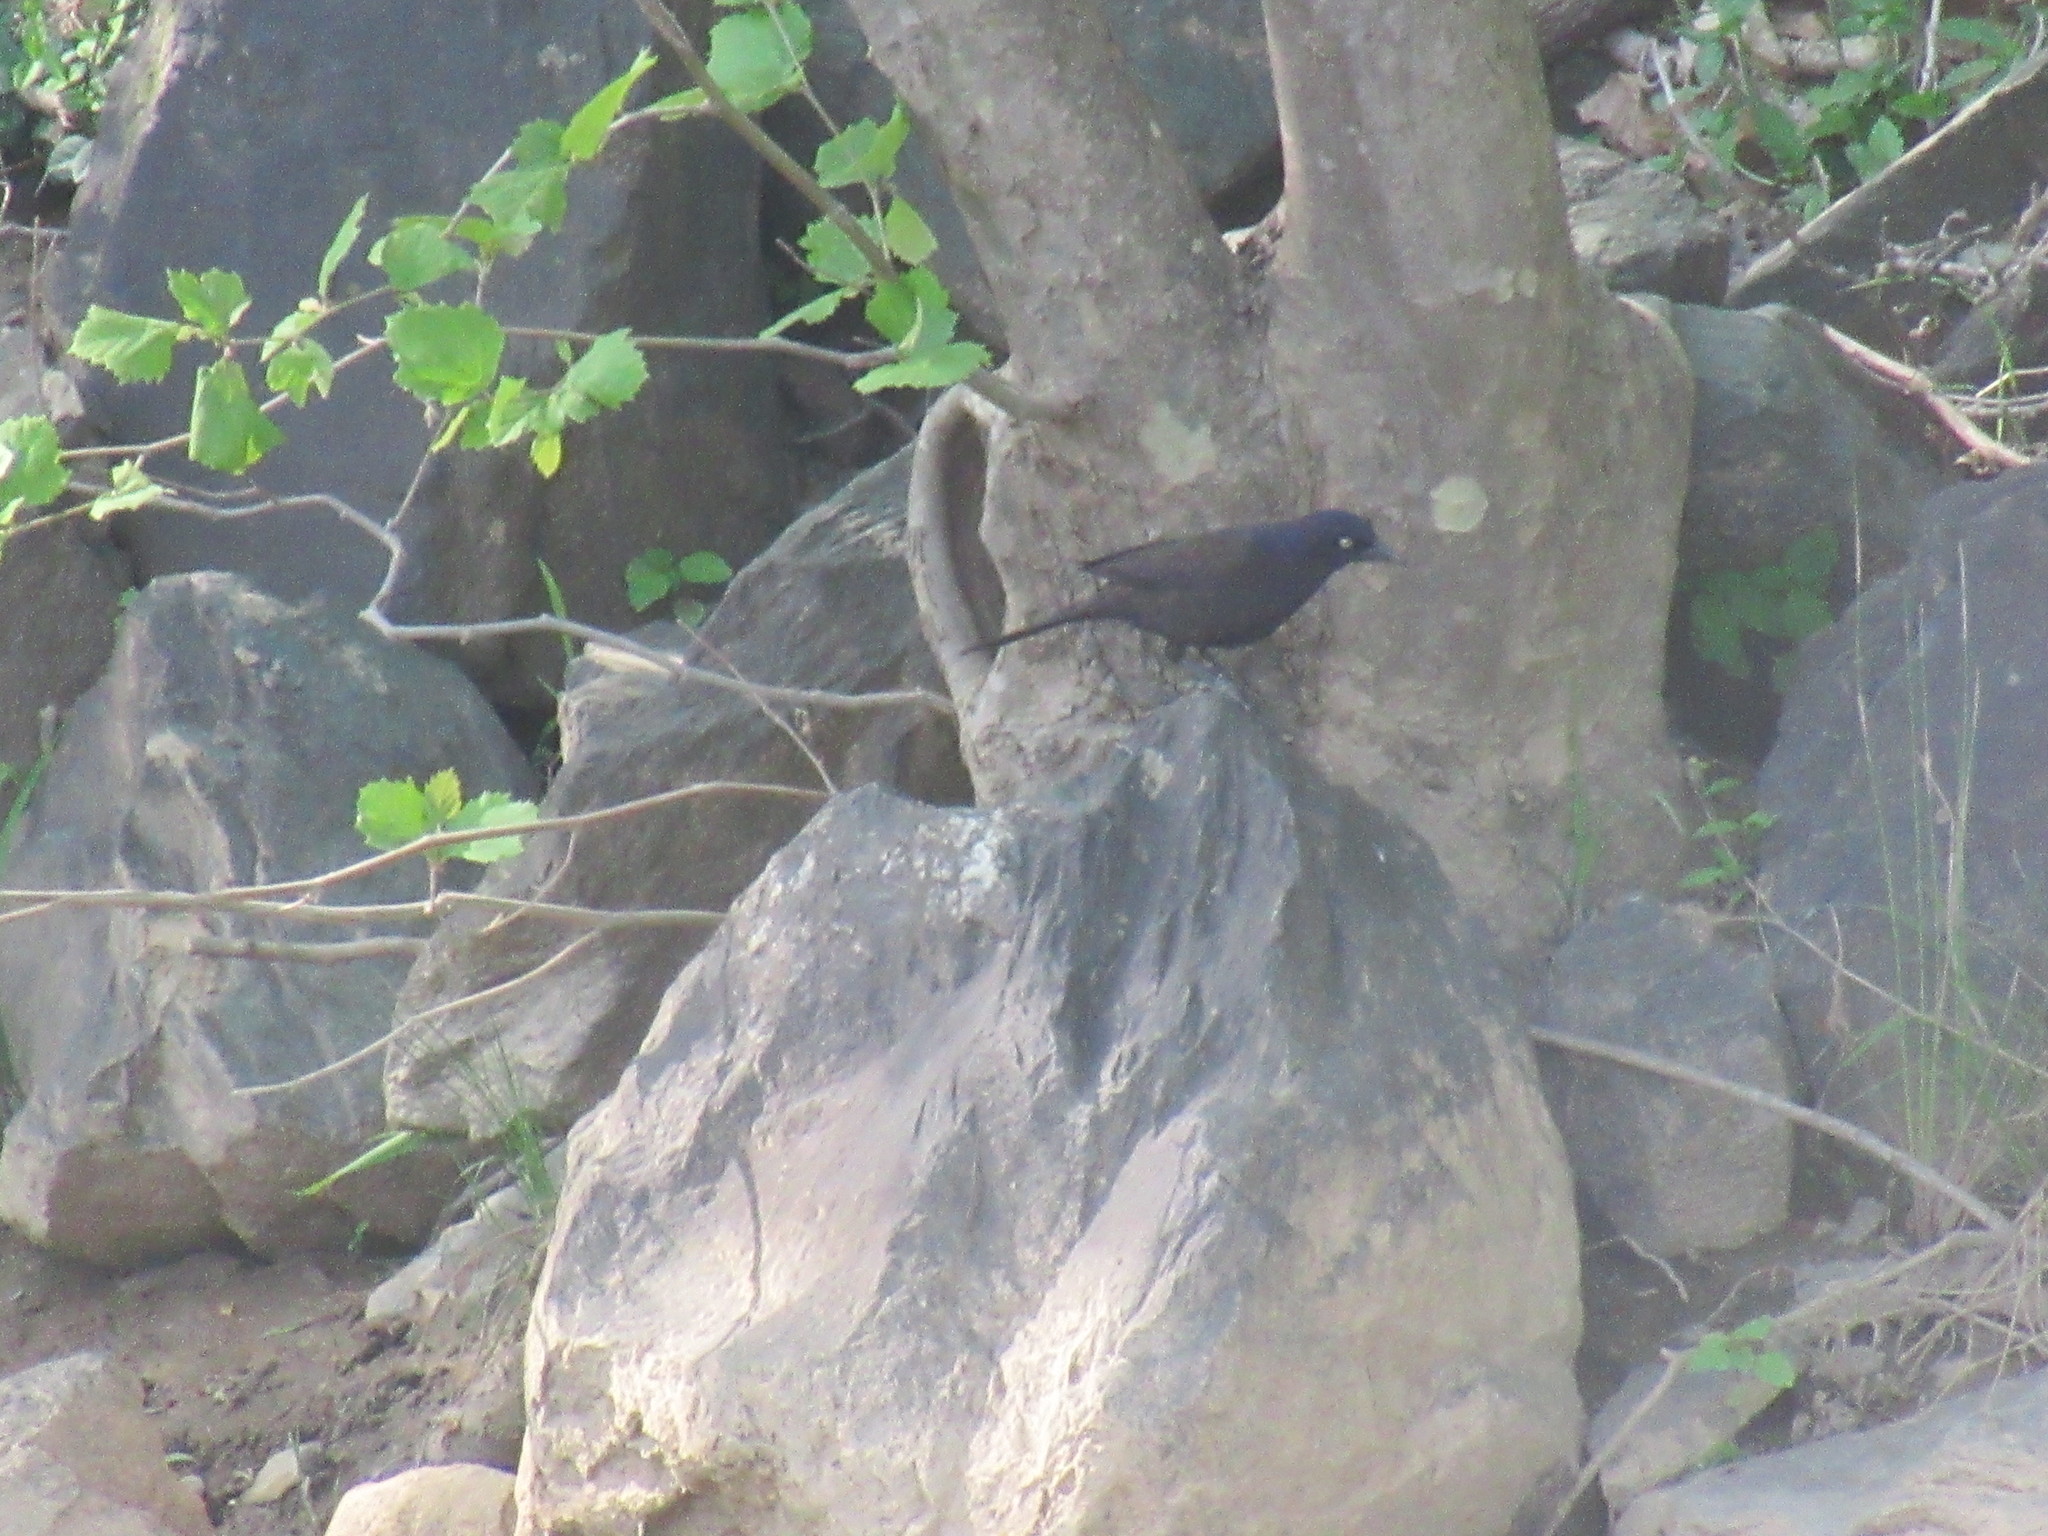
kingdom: Animalia
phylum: Chordata
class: Aves
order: Passeriformes
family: Icteridae
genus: Quiscalus
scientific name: Quiscalus quiscula
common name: Common grackle
